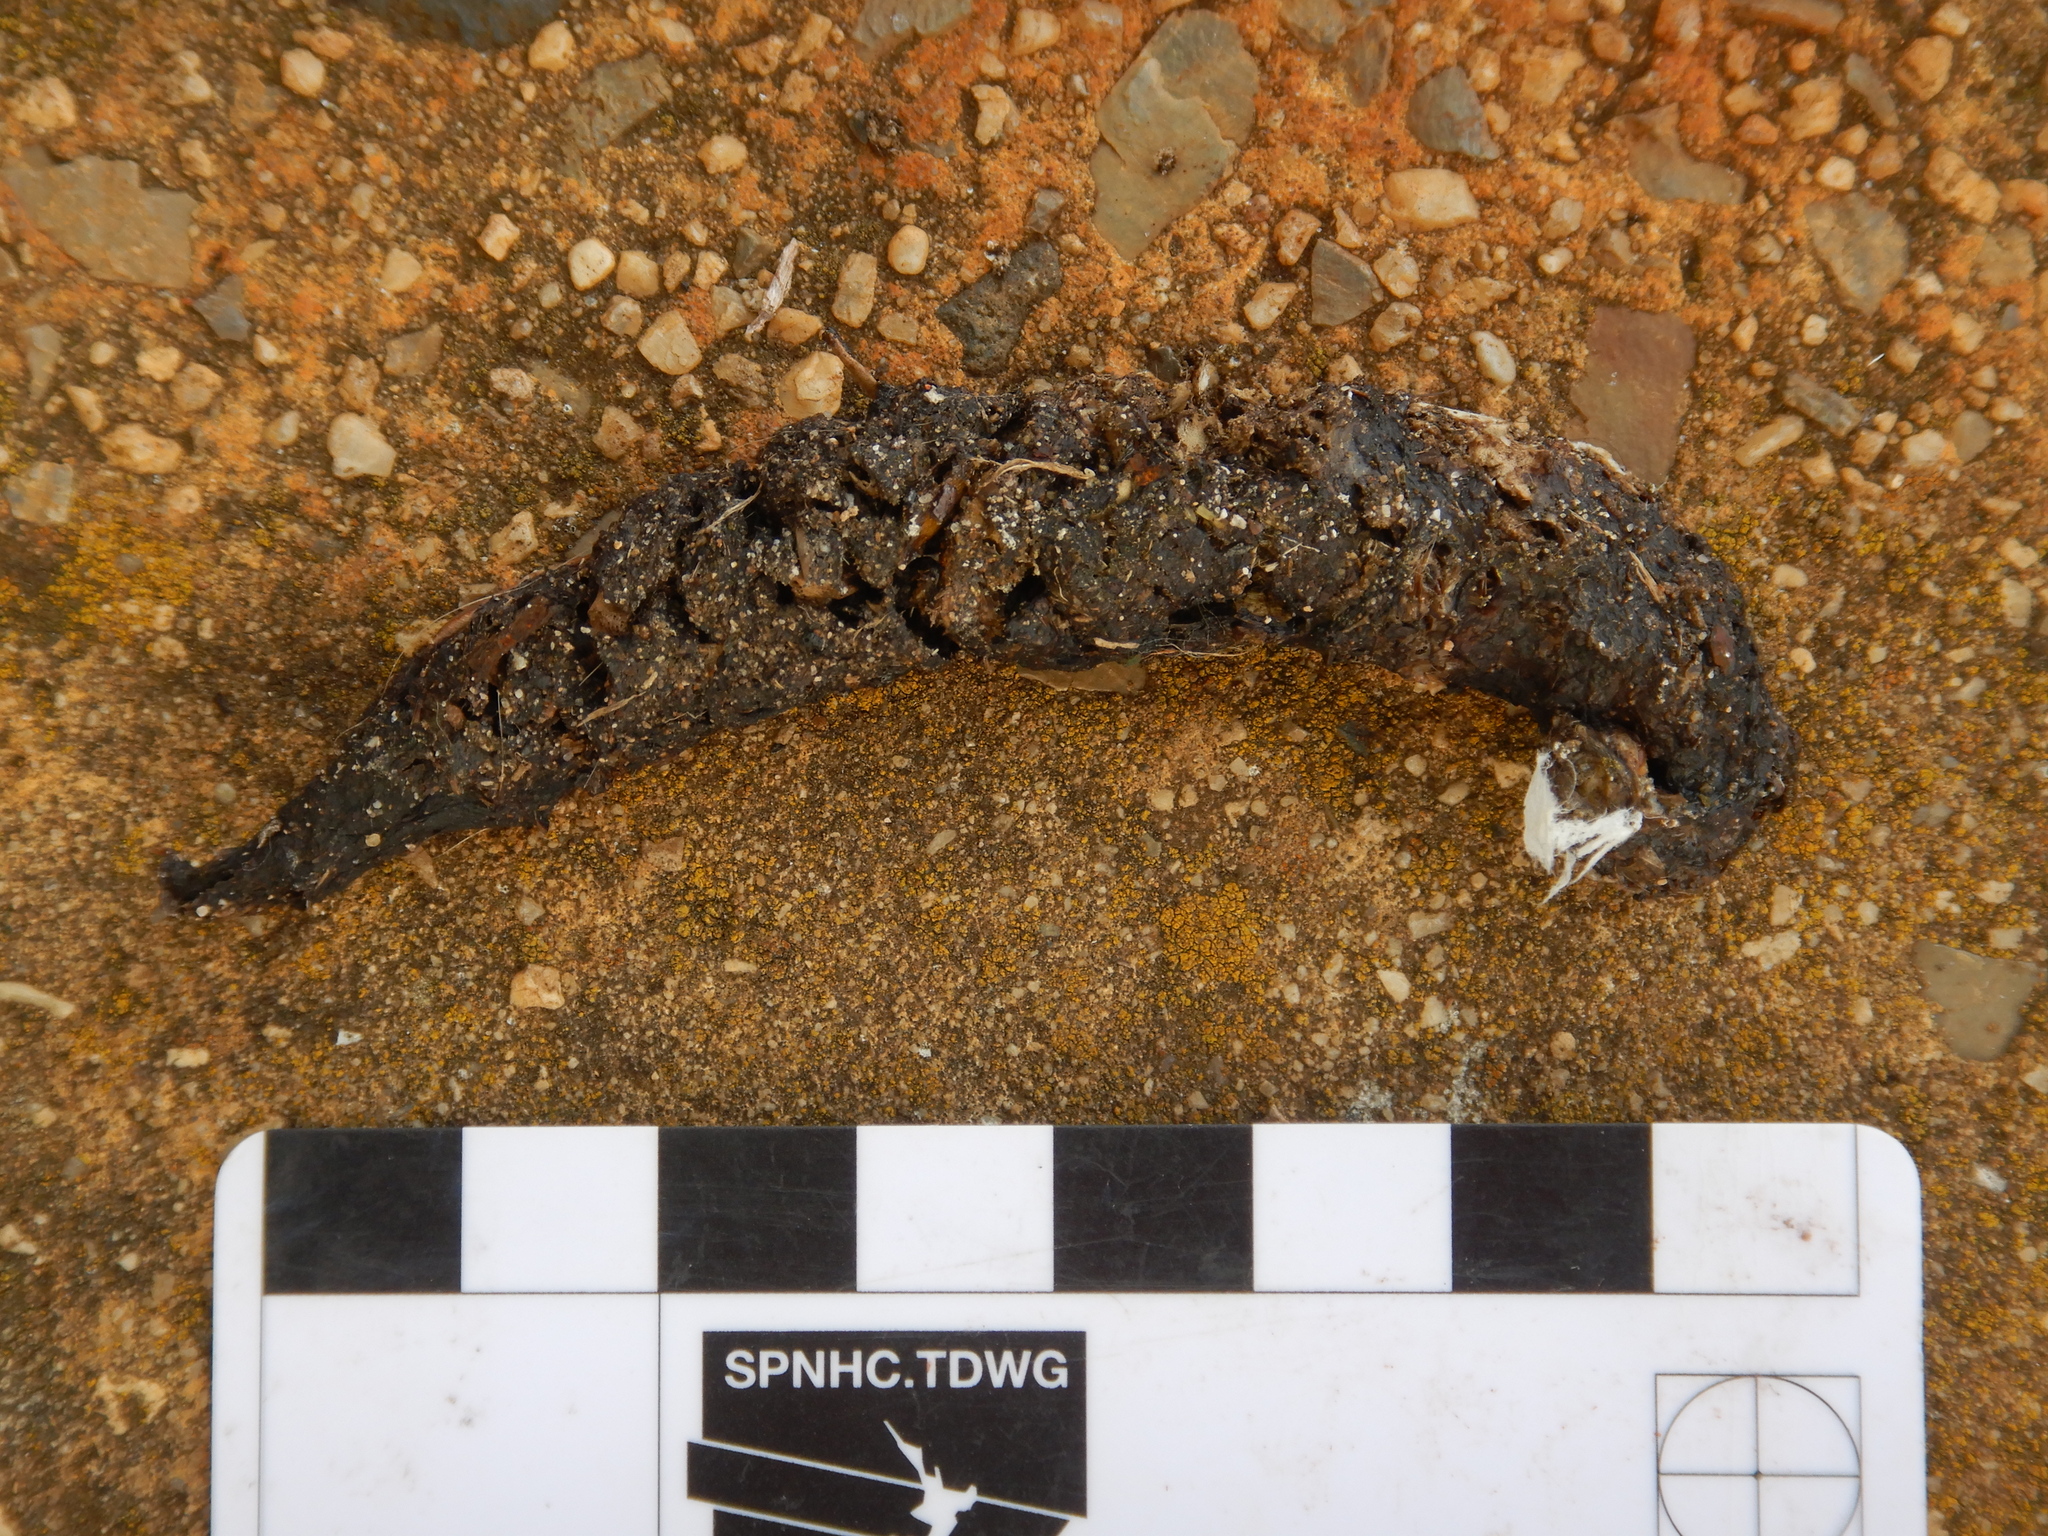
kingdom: Animalia
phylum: Chordata
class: Mammalia
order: Dasyuromorphia
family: Dasyuridae
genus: Sarcophilus
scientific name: Sarcophilus harrisii
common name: Tasmanian devil
